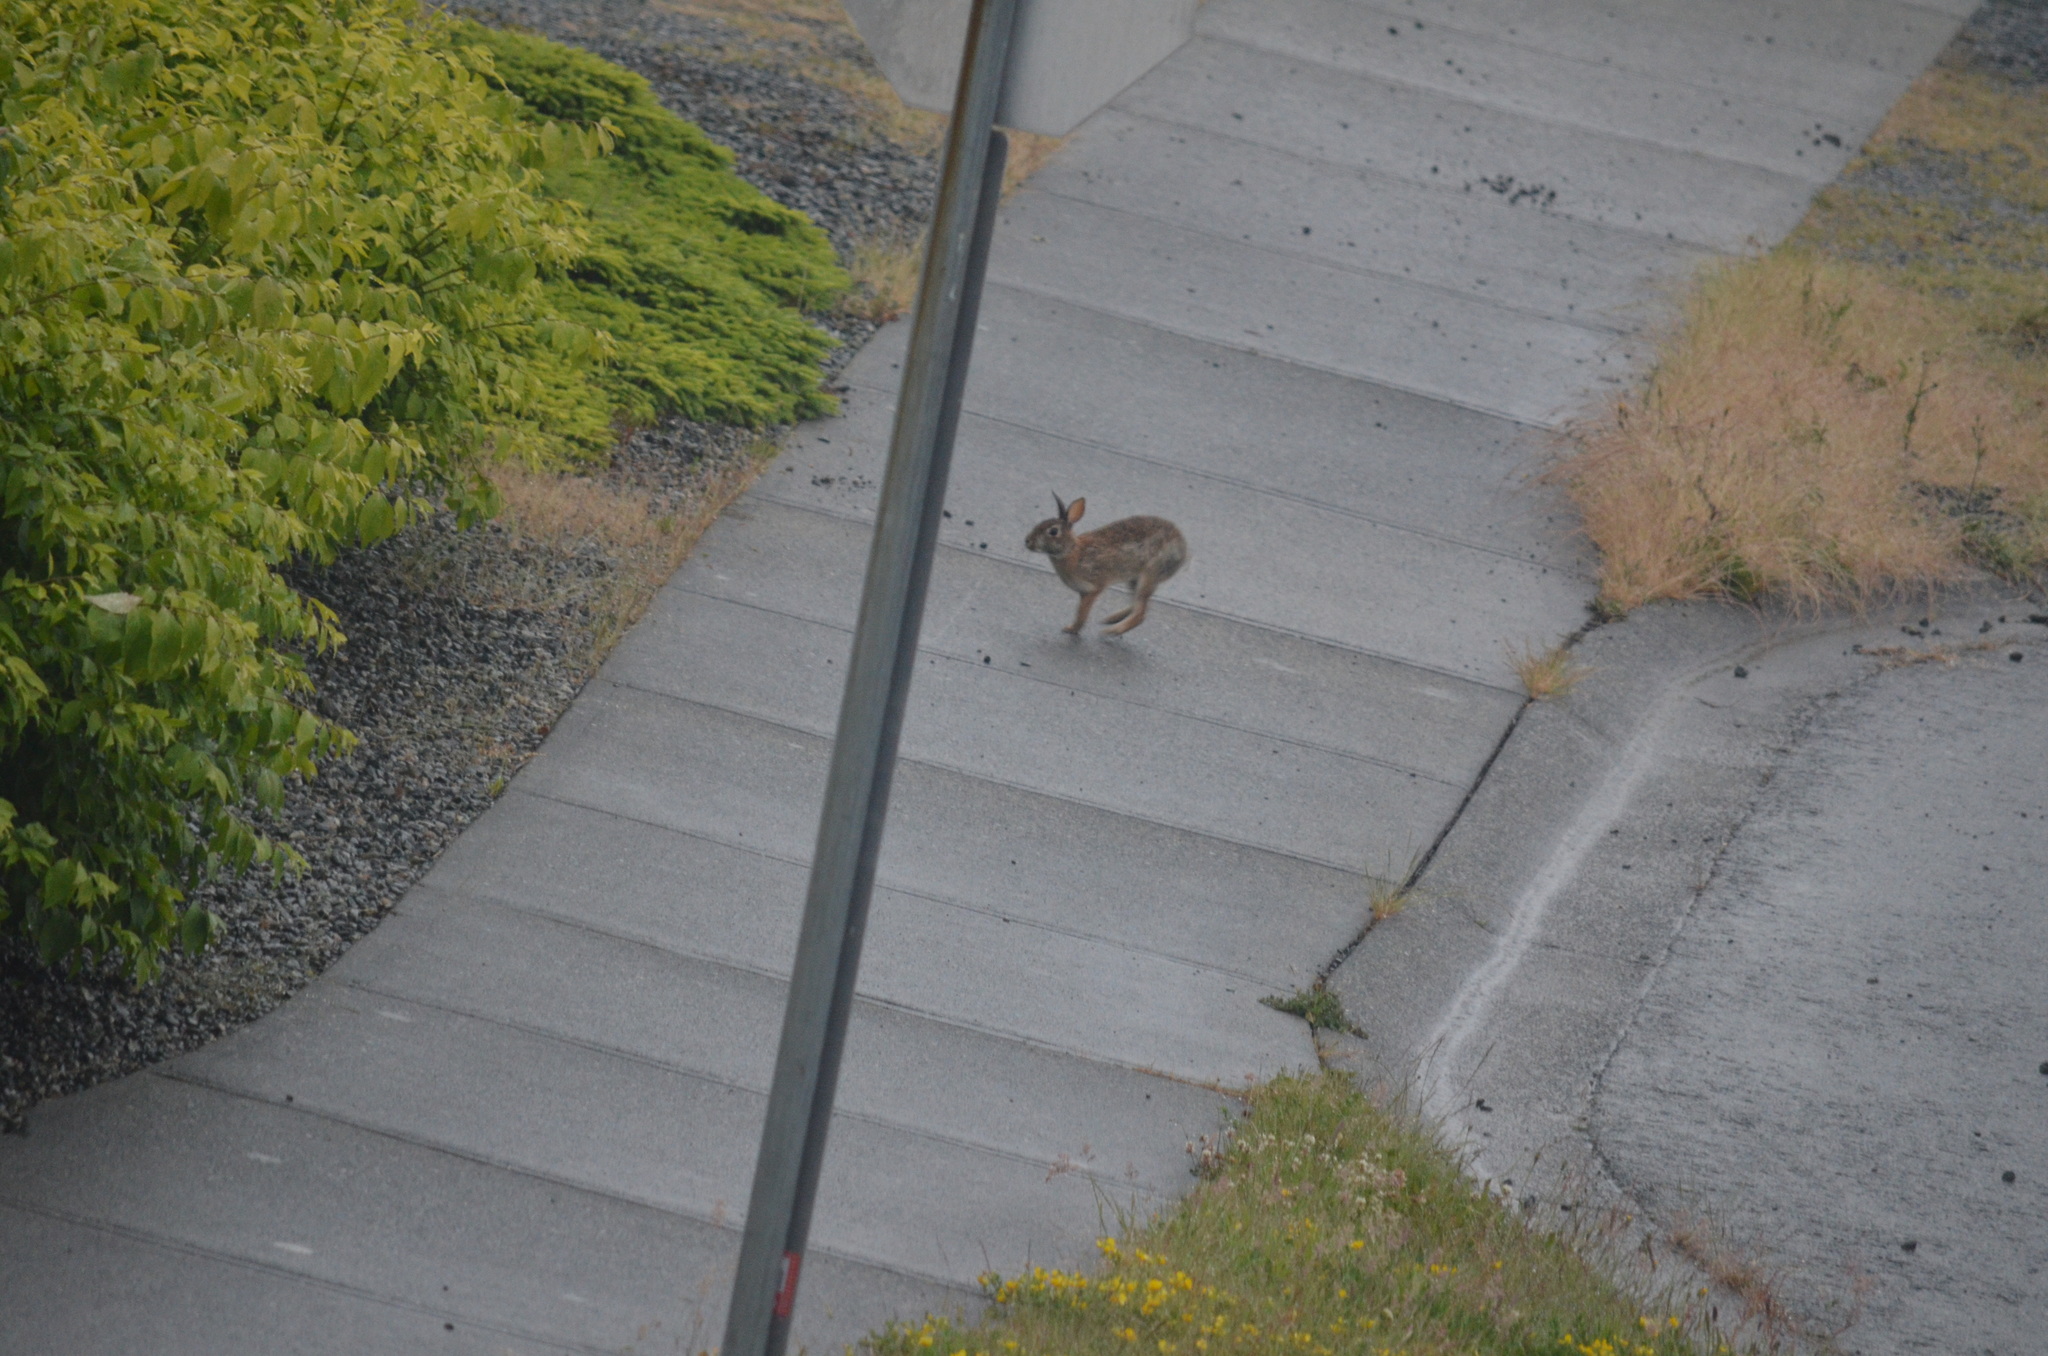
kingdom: Animalia
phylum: Chordata
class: Mammalia
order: Lagomorpha
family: Leporidae
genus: Sylvilagus
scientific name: Sylvilagus floridanus
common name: Eastern cottontail
